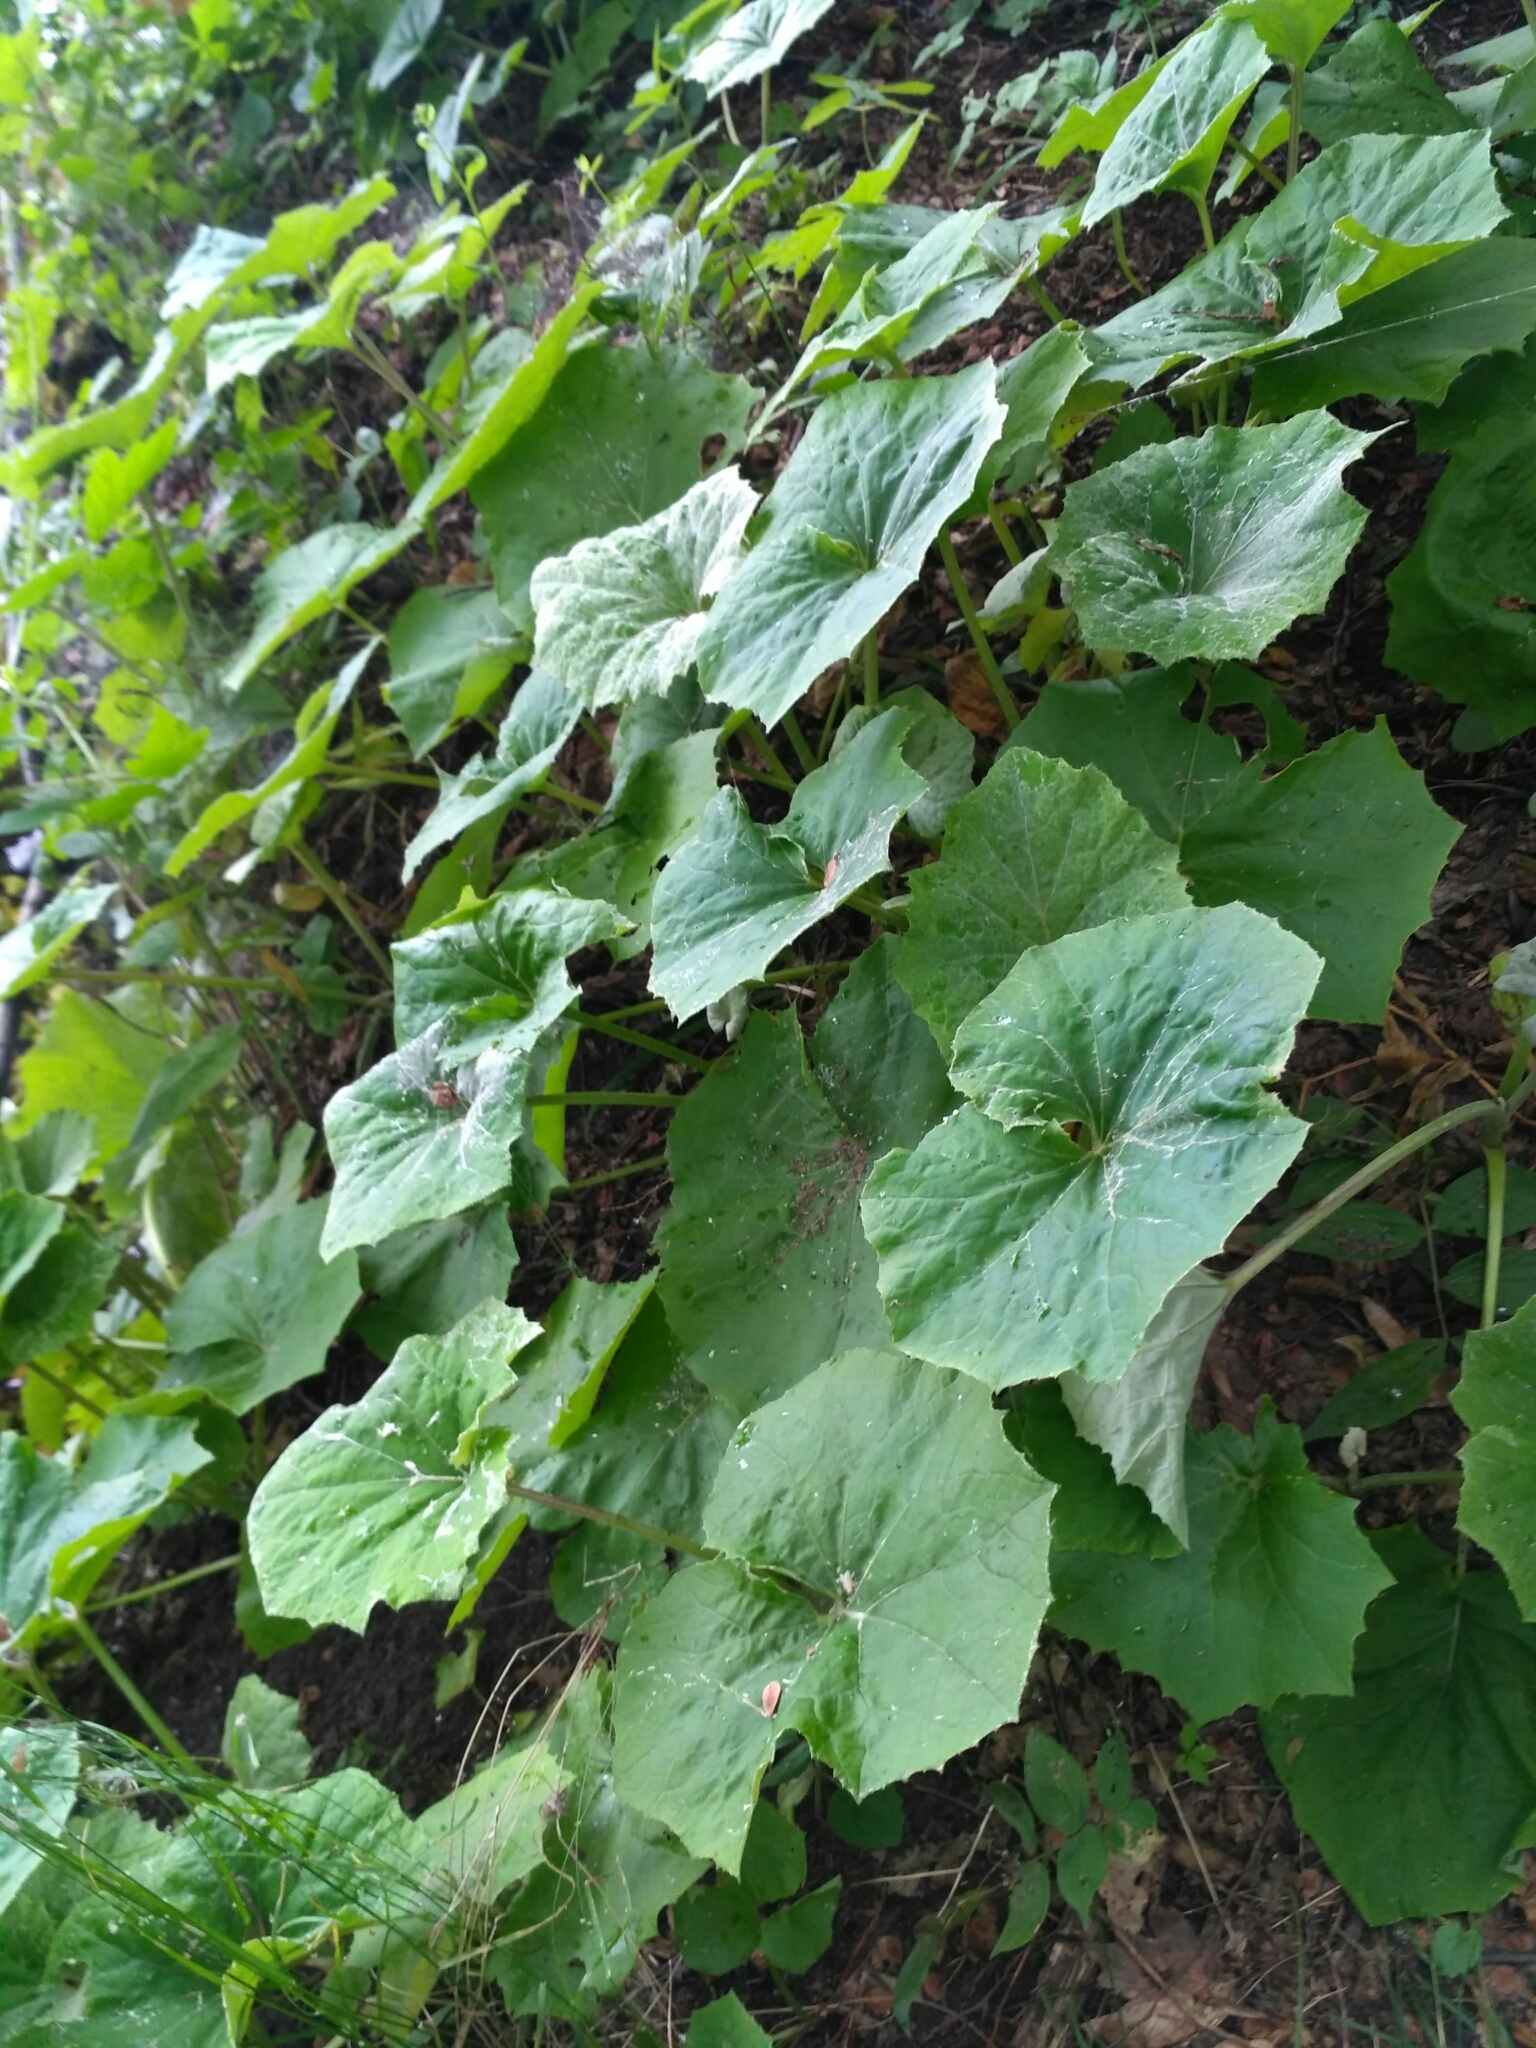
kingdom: Plantae
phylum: Tracheophyta
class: Magnoliopsida
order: Asterales
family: Asteraceae
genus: Tussilago
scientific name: Tussilago farfara
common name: Coltsfoot
